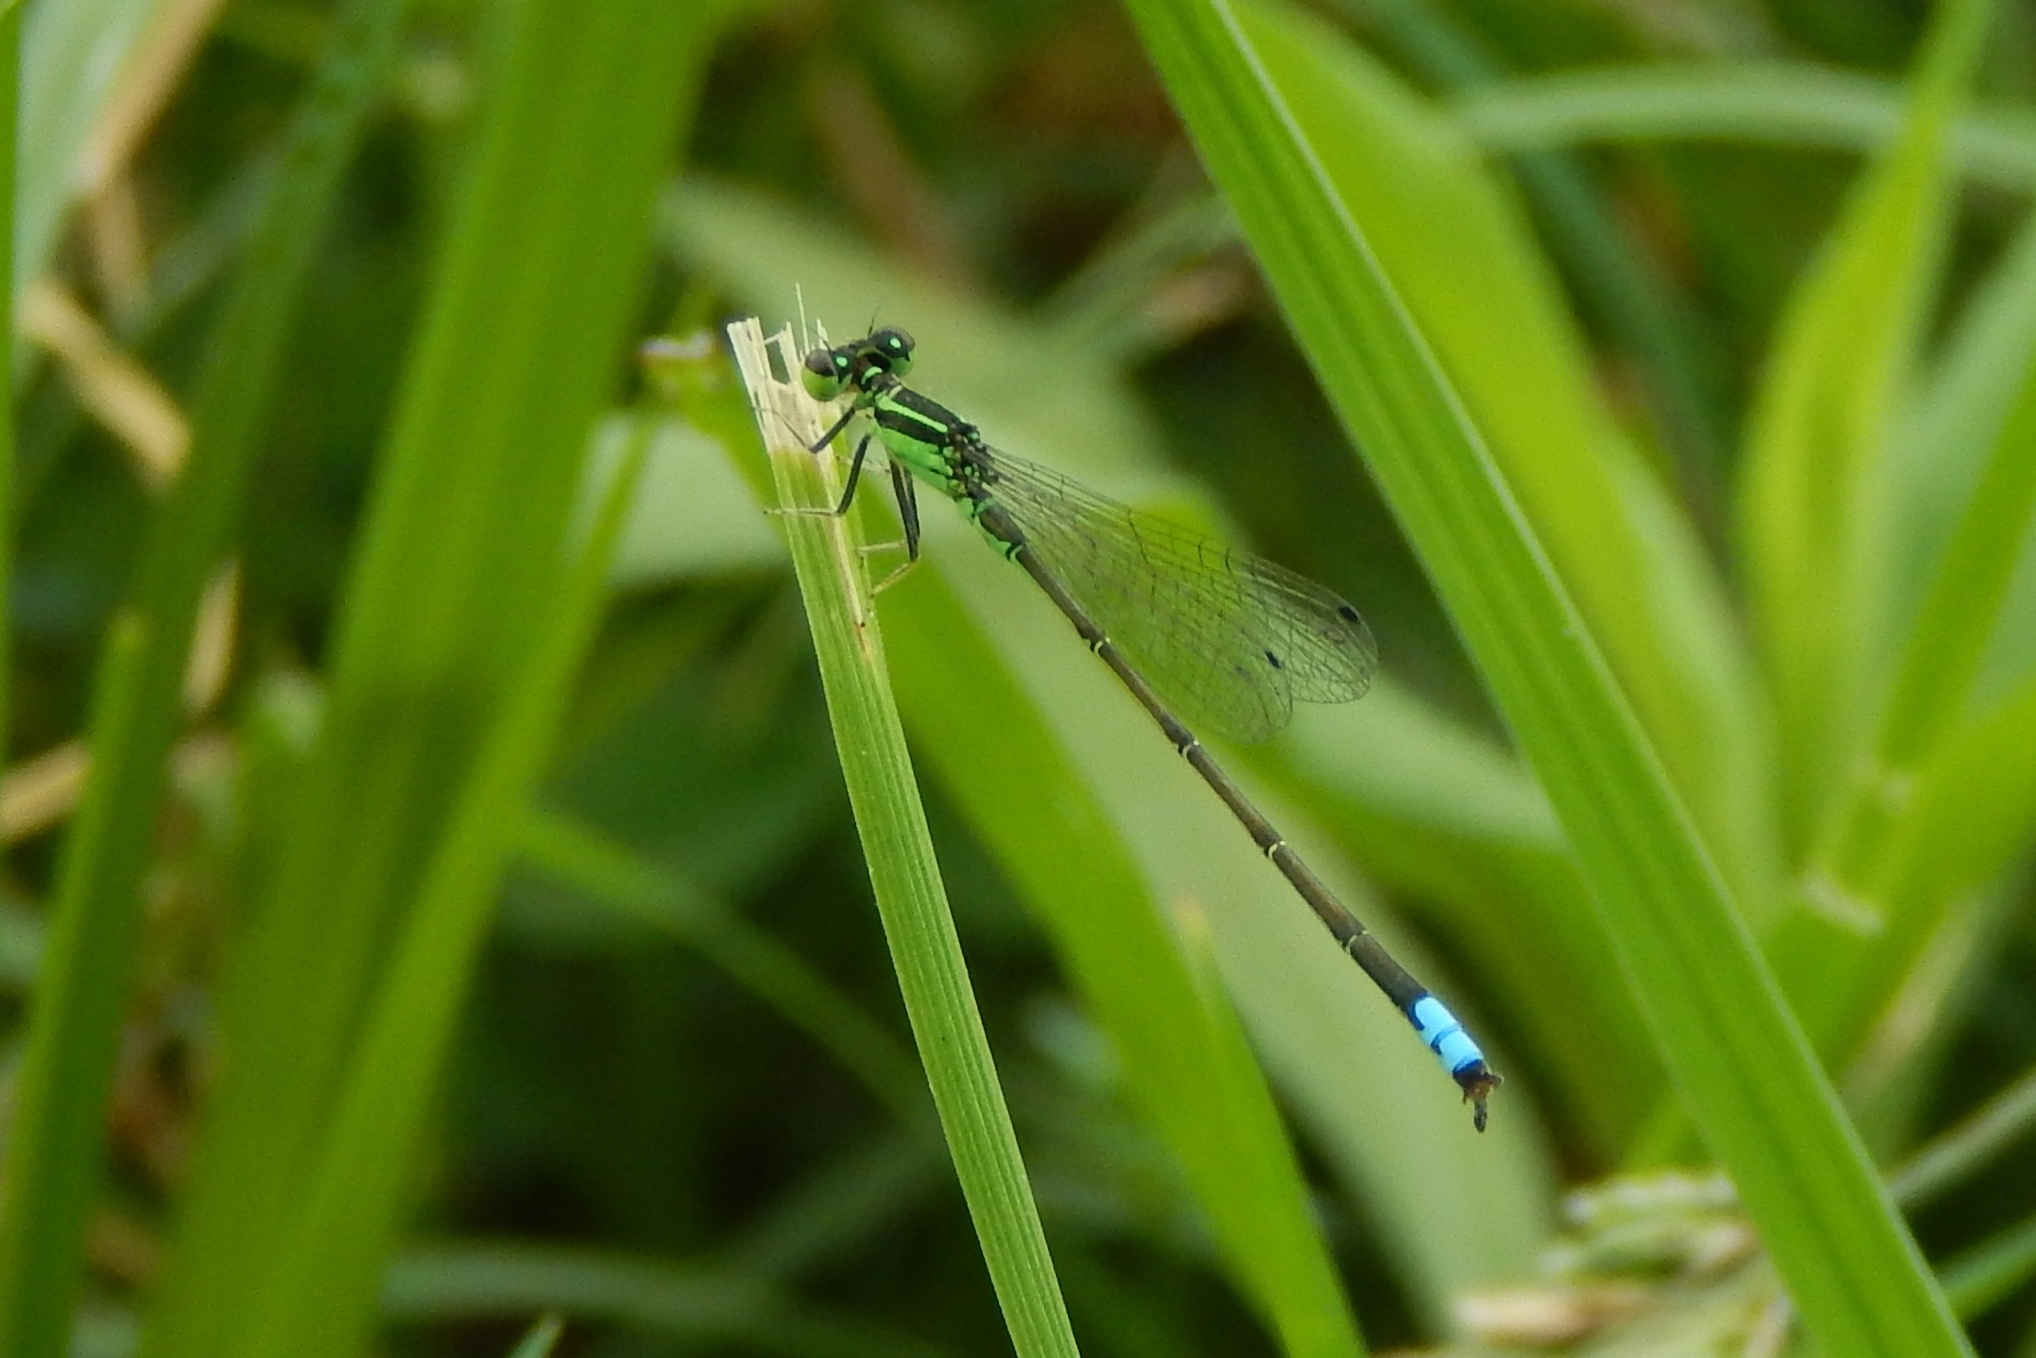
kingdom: Animalia
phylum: Arthropoda
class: Insecta
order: Odonata
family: Coenagrionidae
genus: Ischnura
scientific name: Ischnura verticalis
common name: Eastern forktail
